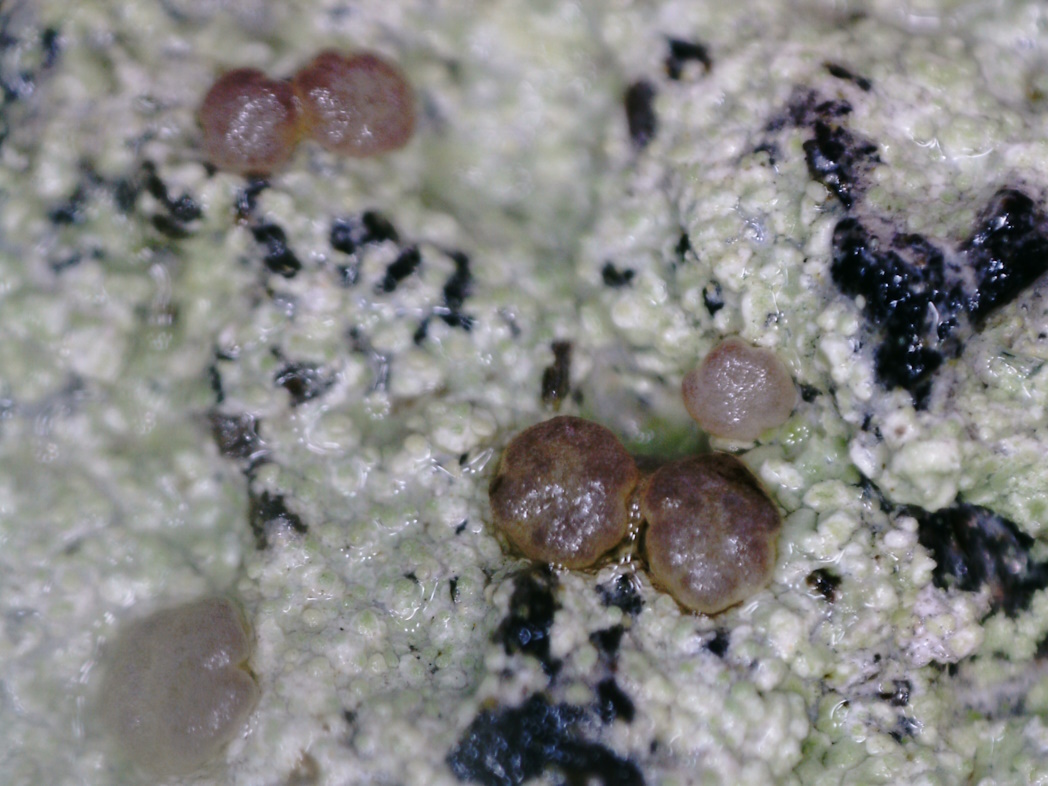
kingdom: Fungi
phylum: Ascomycota
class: Lecanoromycetes
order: Baeomycetales
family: Baeomycetaceae
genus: Baeomyces
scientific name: Baeomyces carneus
